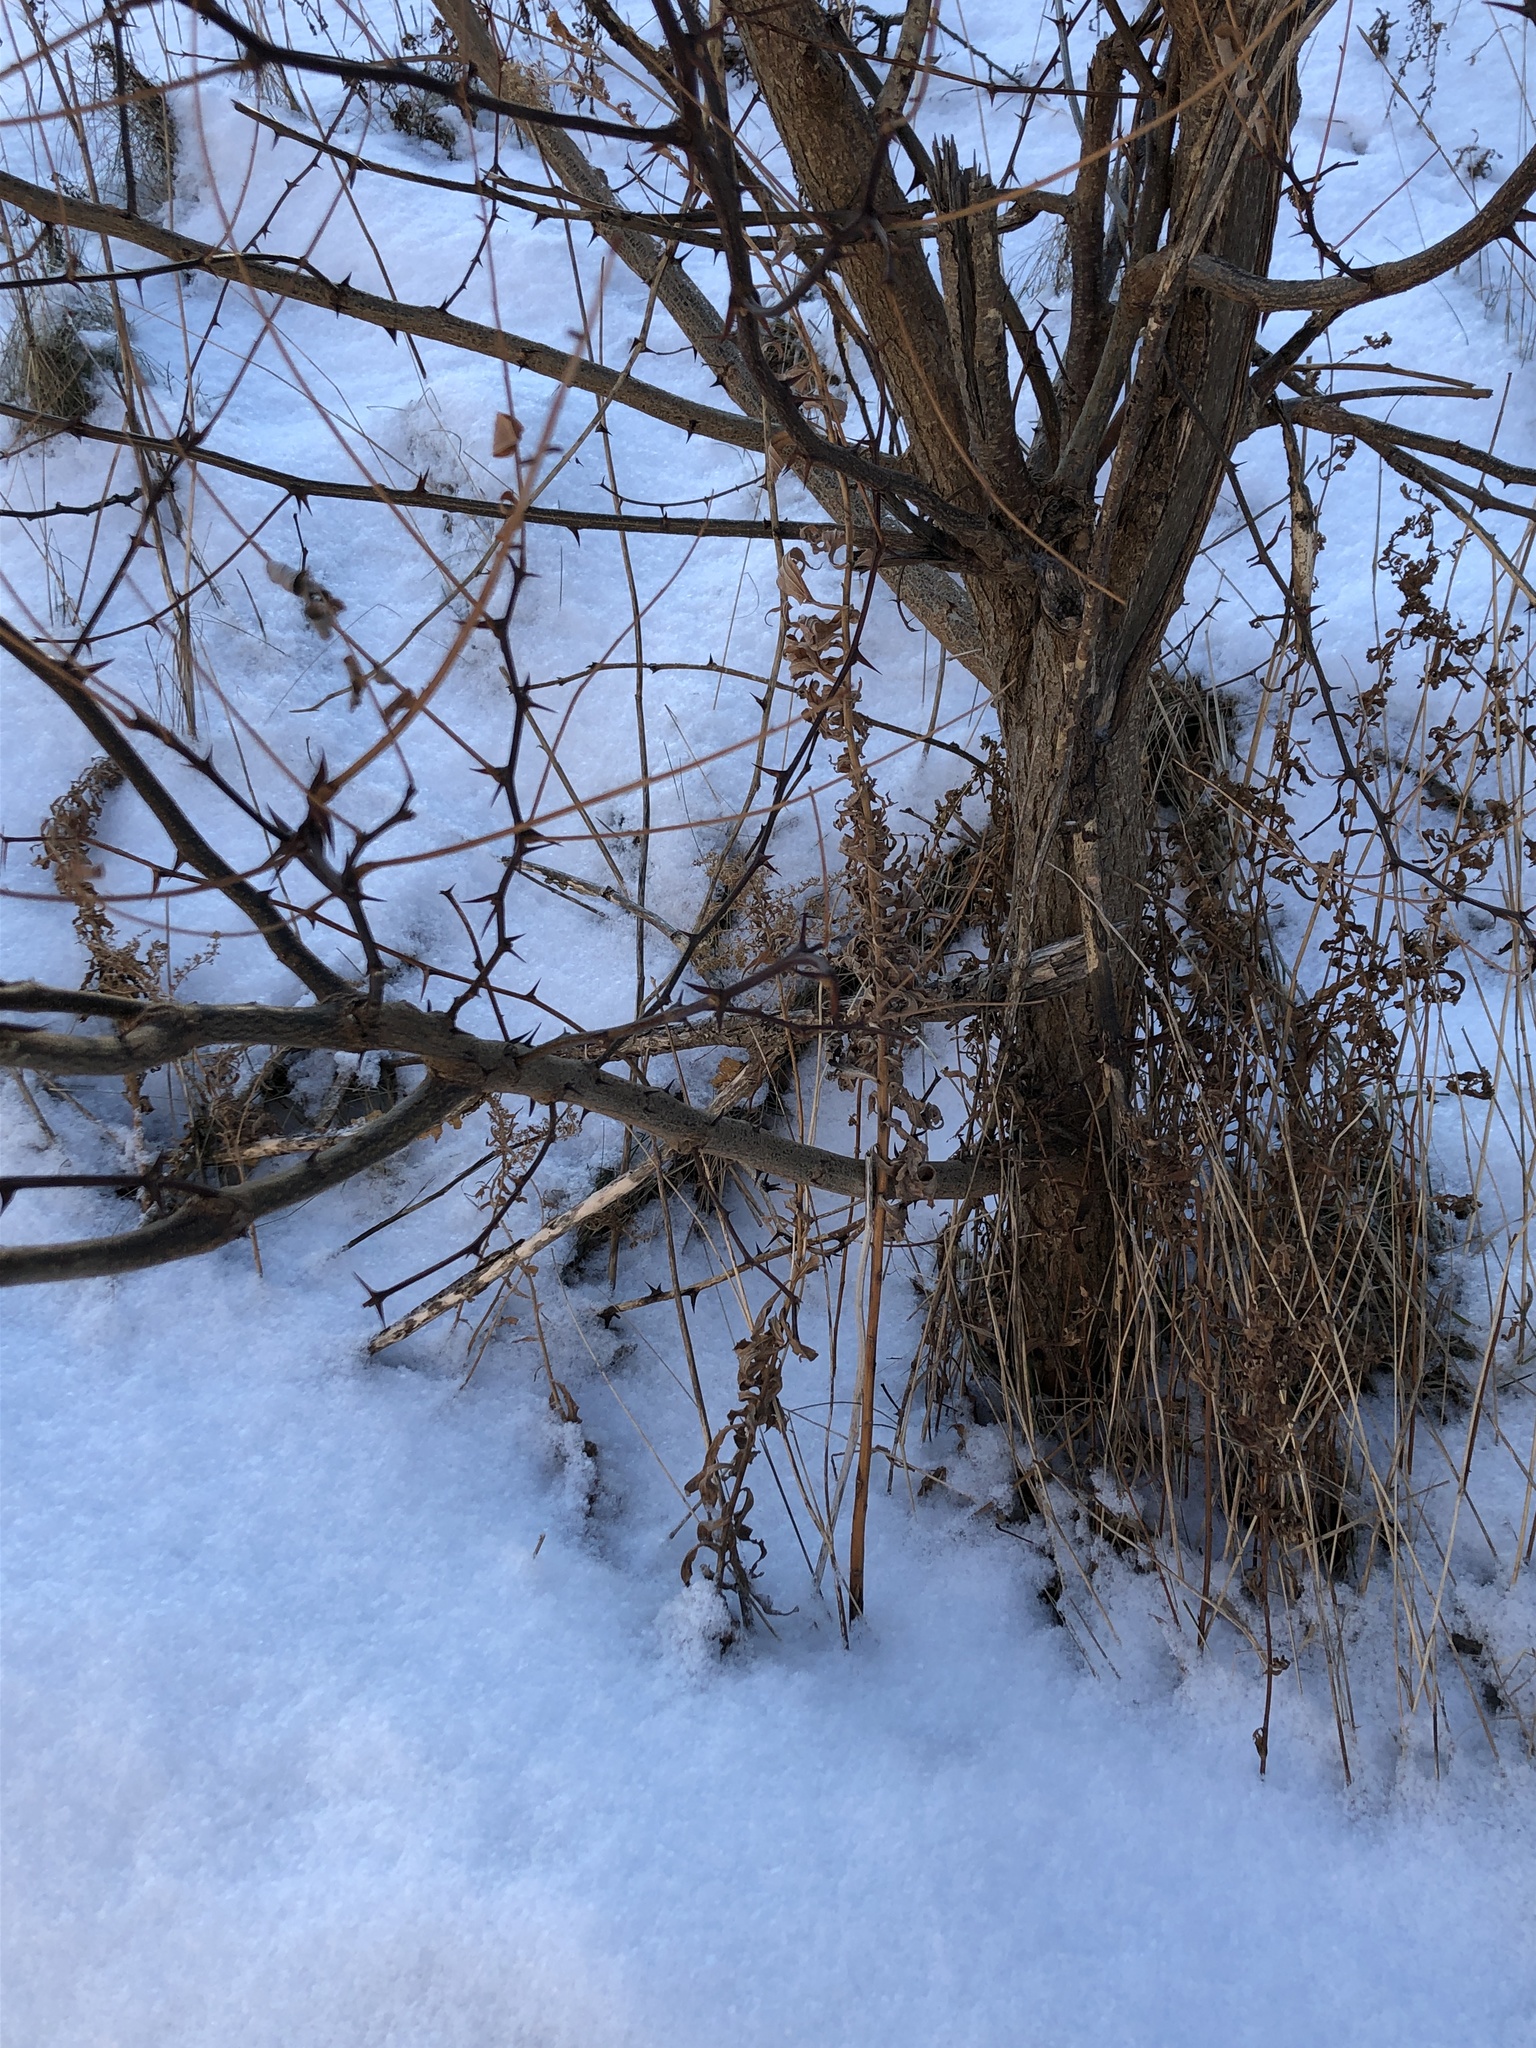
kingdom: Plantae
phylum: Tracheophyta
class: Magnoliopsida
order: Fabales
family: Fabaceae
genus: Robinia
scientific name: Robinia pseudoacacia
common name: Black locust
